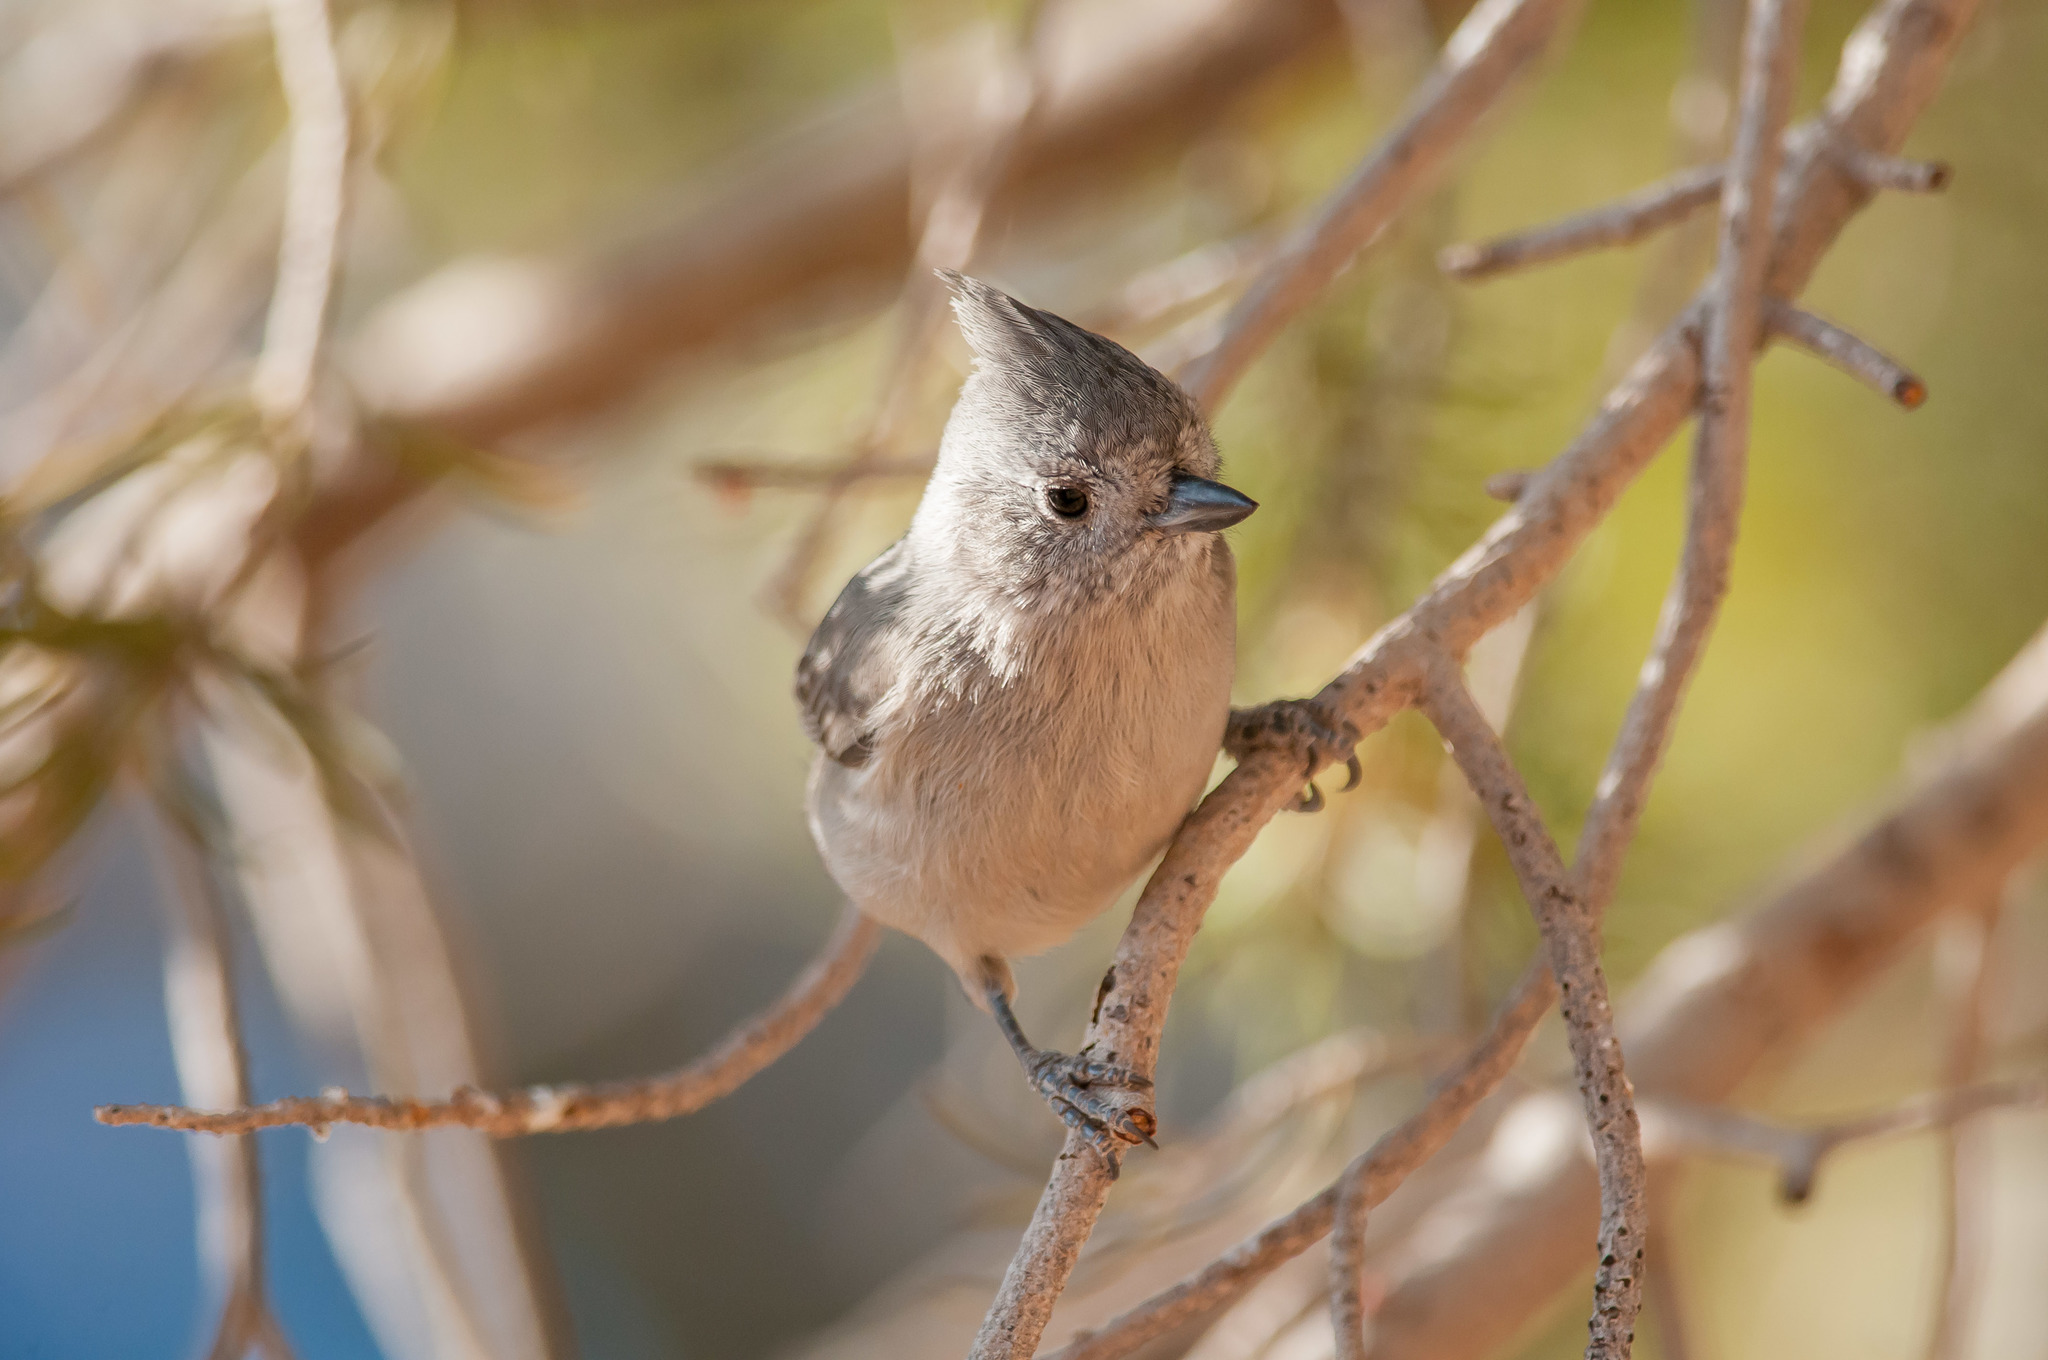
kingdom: Animalia
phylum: Chordata
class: Aves
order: Passeriformes
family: Paridae
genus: Baeolophus
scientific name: Baeolophus ridgwayi
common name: Juniper titmouse
